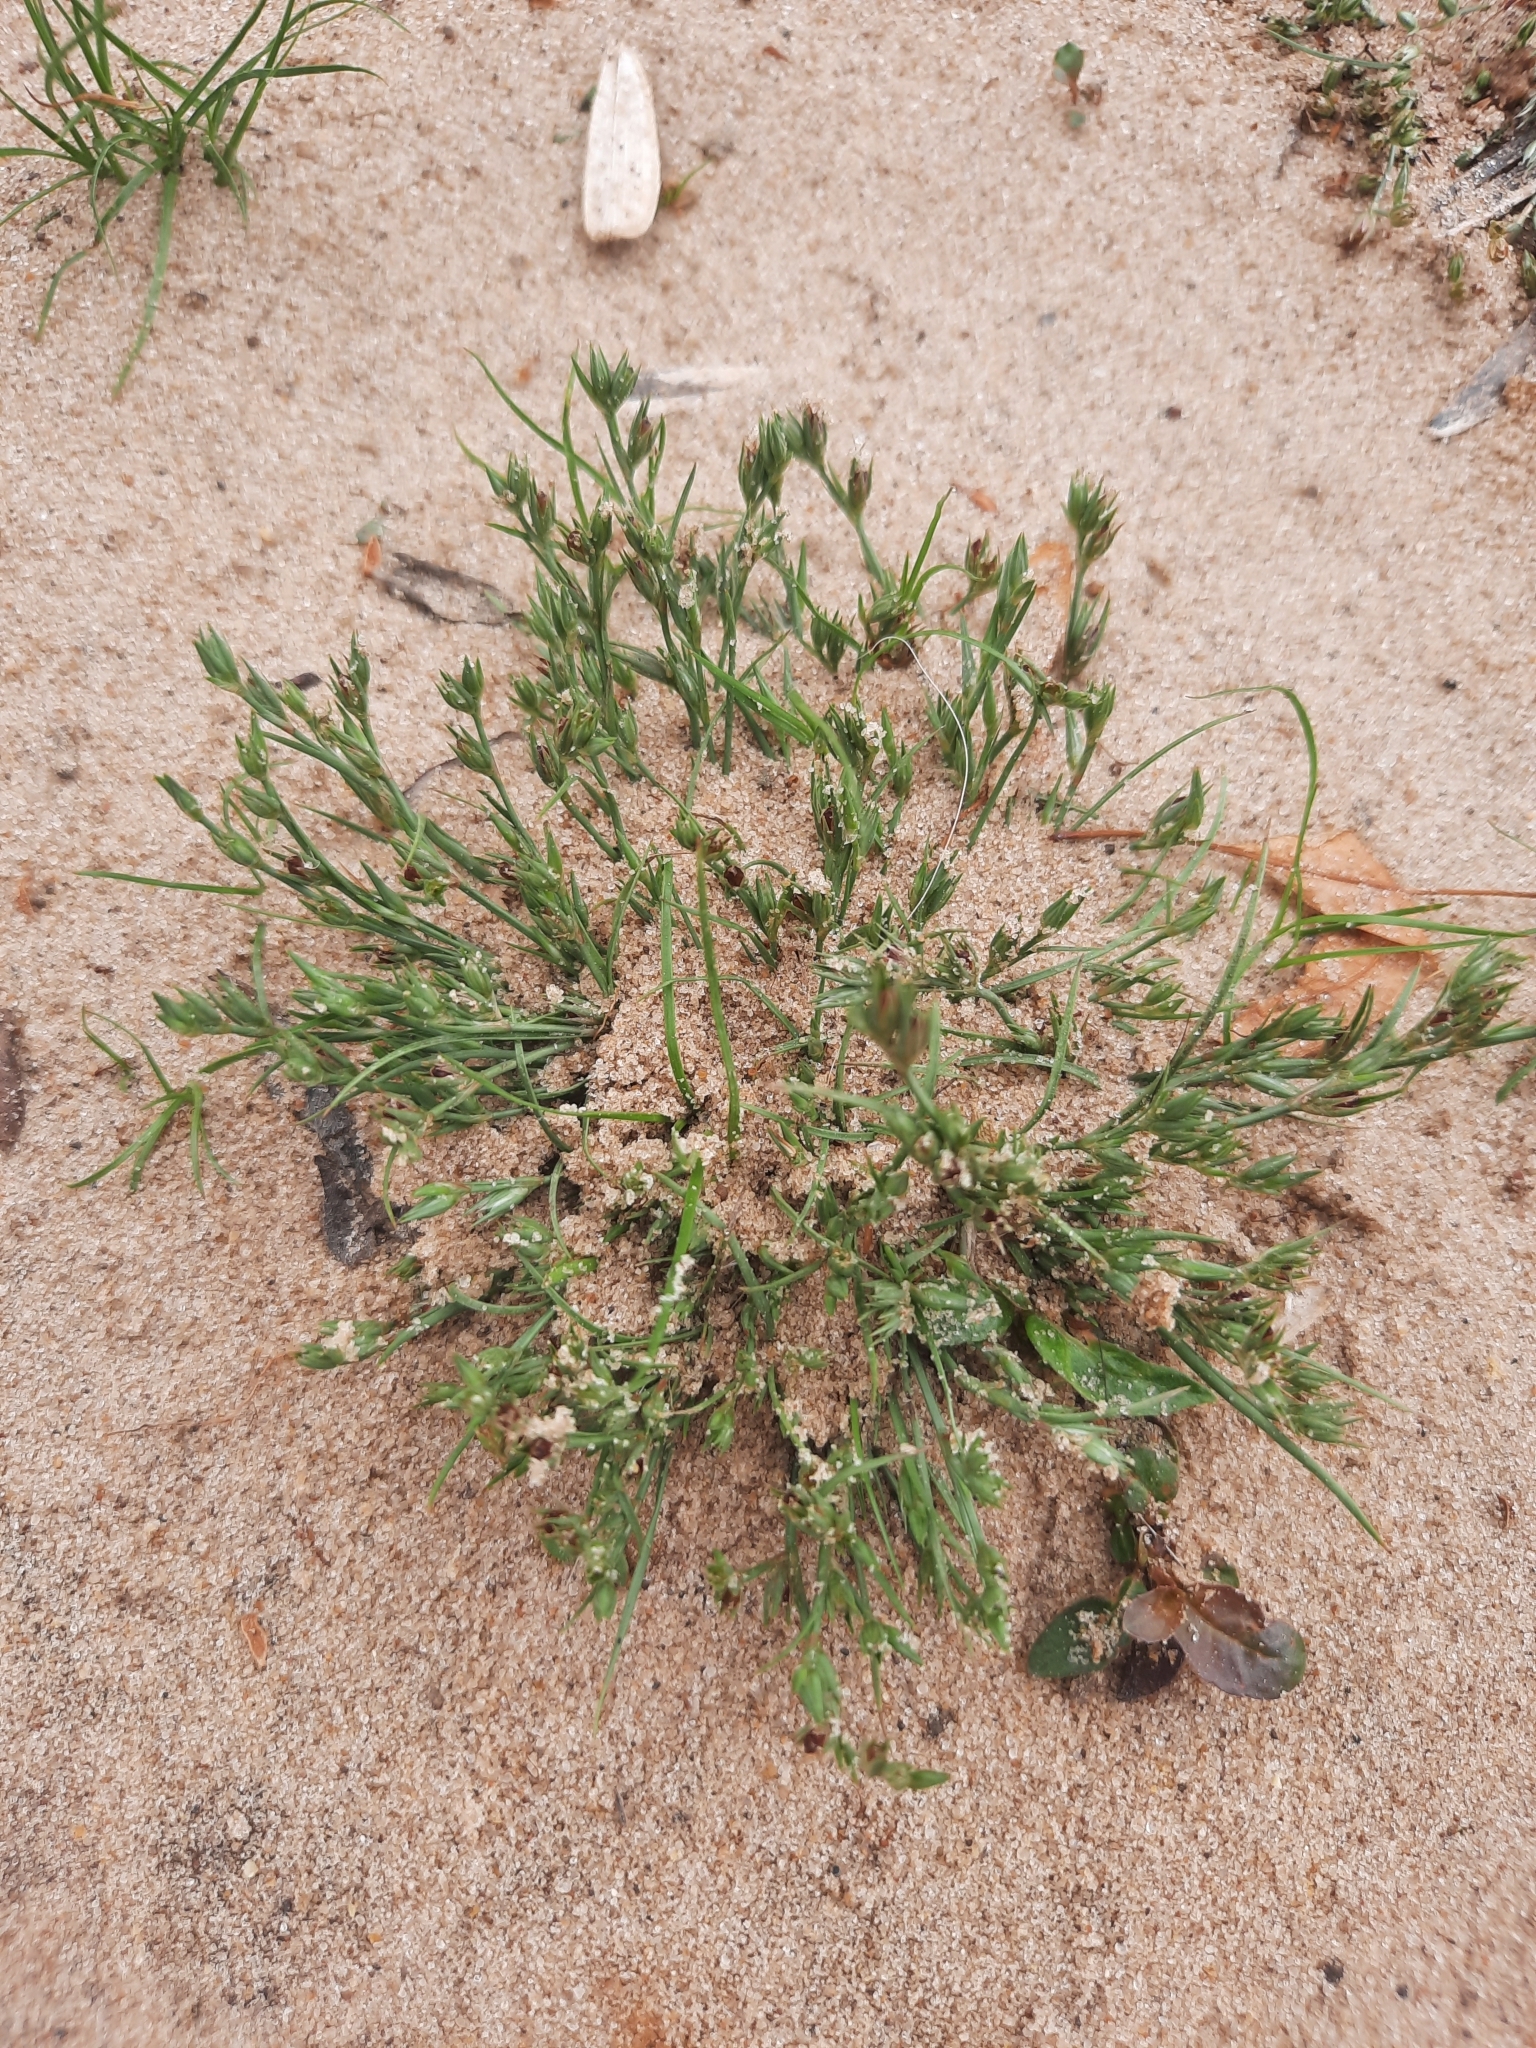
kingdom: Plantae
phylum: Tracheophyta
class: Liliopsida
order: Poales
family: Juncaceae
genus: Juncus
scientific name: Juncus bufonius
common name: Toad rush
